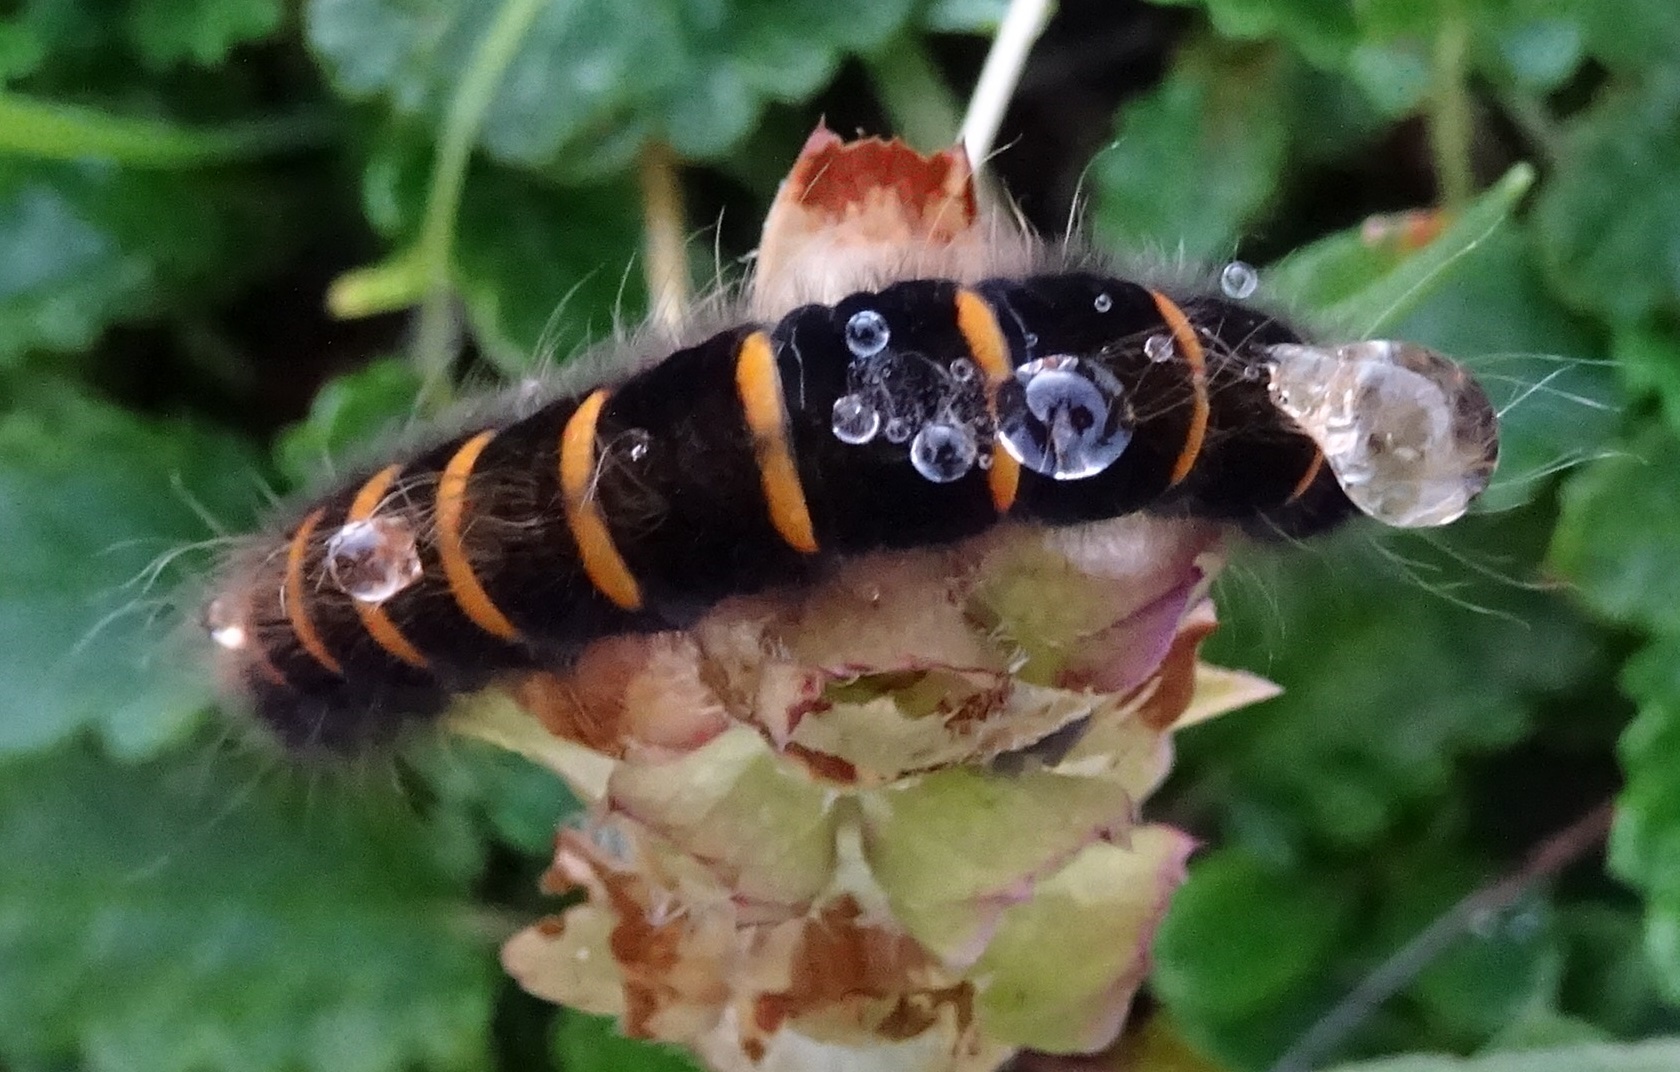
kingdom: Animalia
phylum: Arthropoda
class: Insecta
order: Lepidoptera
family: Lasiocampidae
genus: Macrothylacia
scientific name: Macrothylacia rubi
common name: Fox moth
